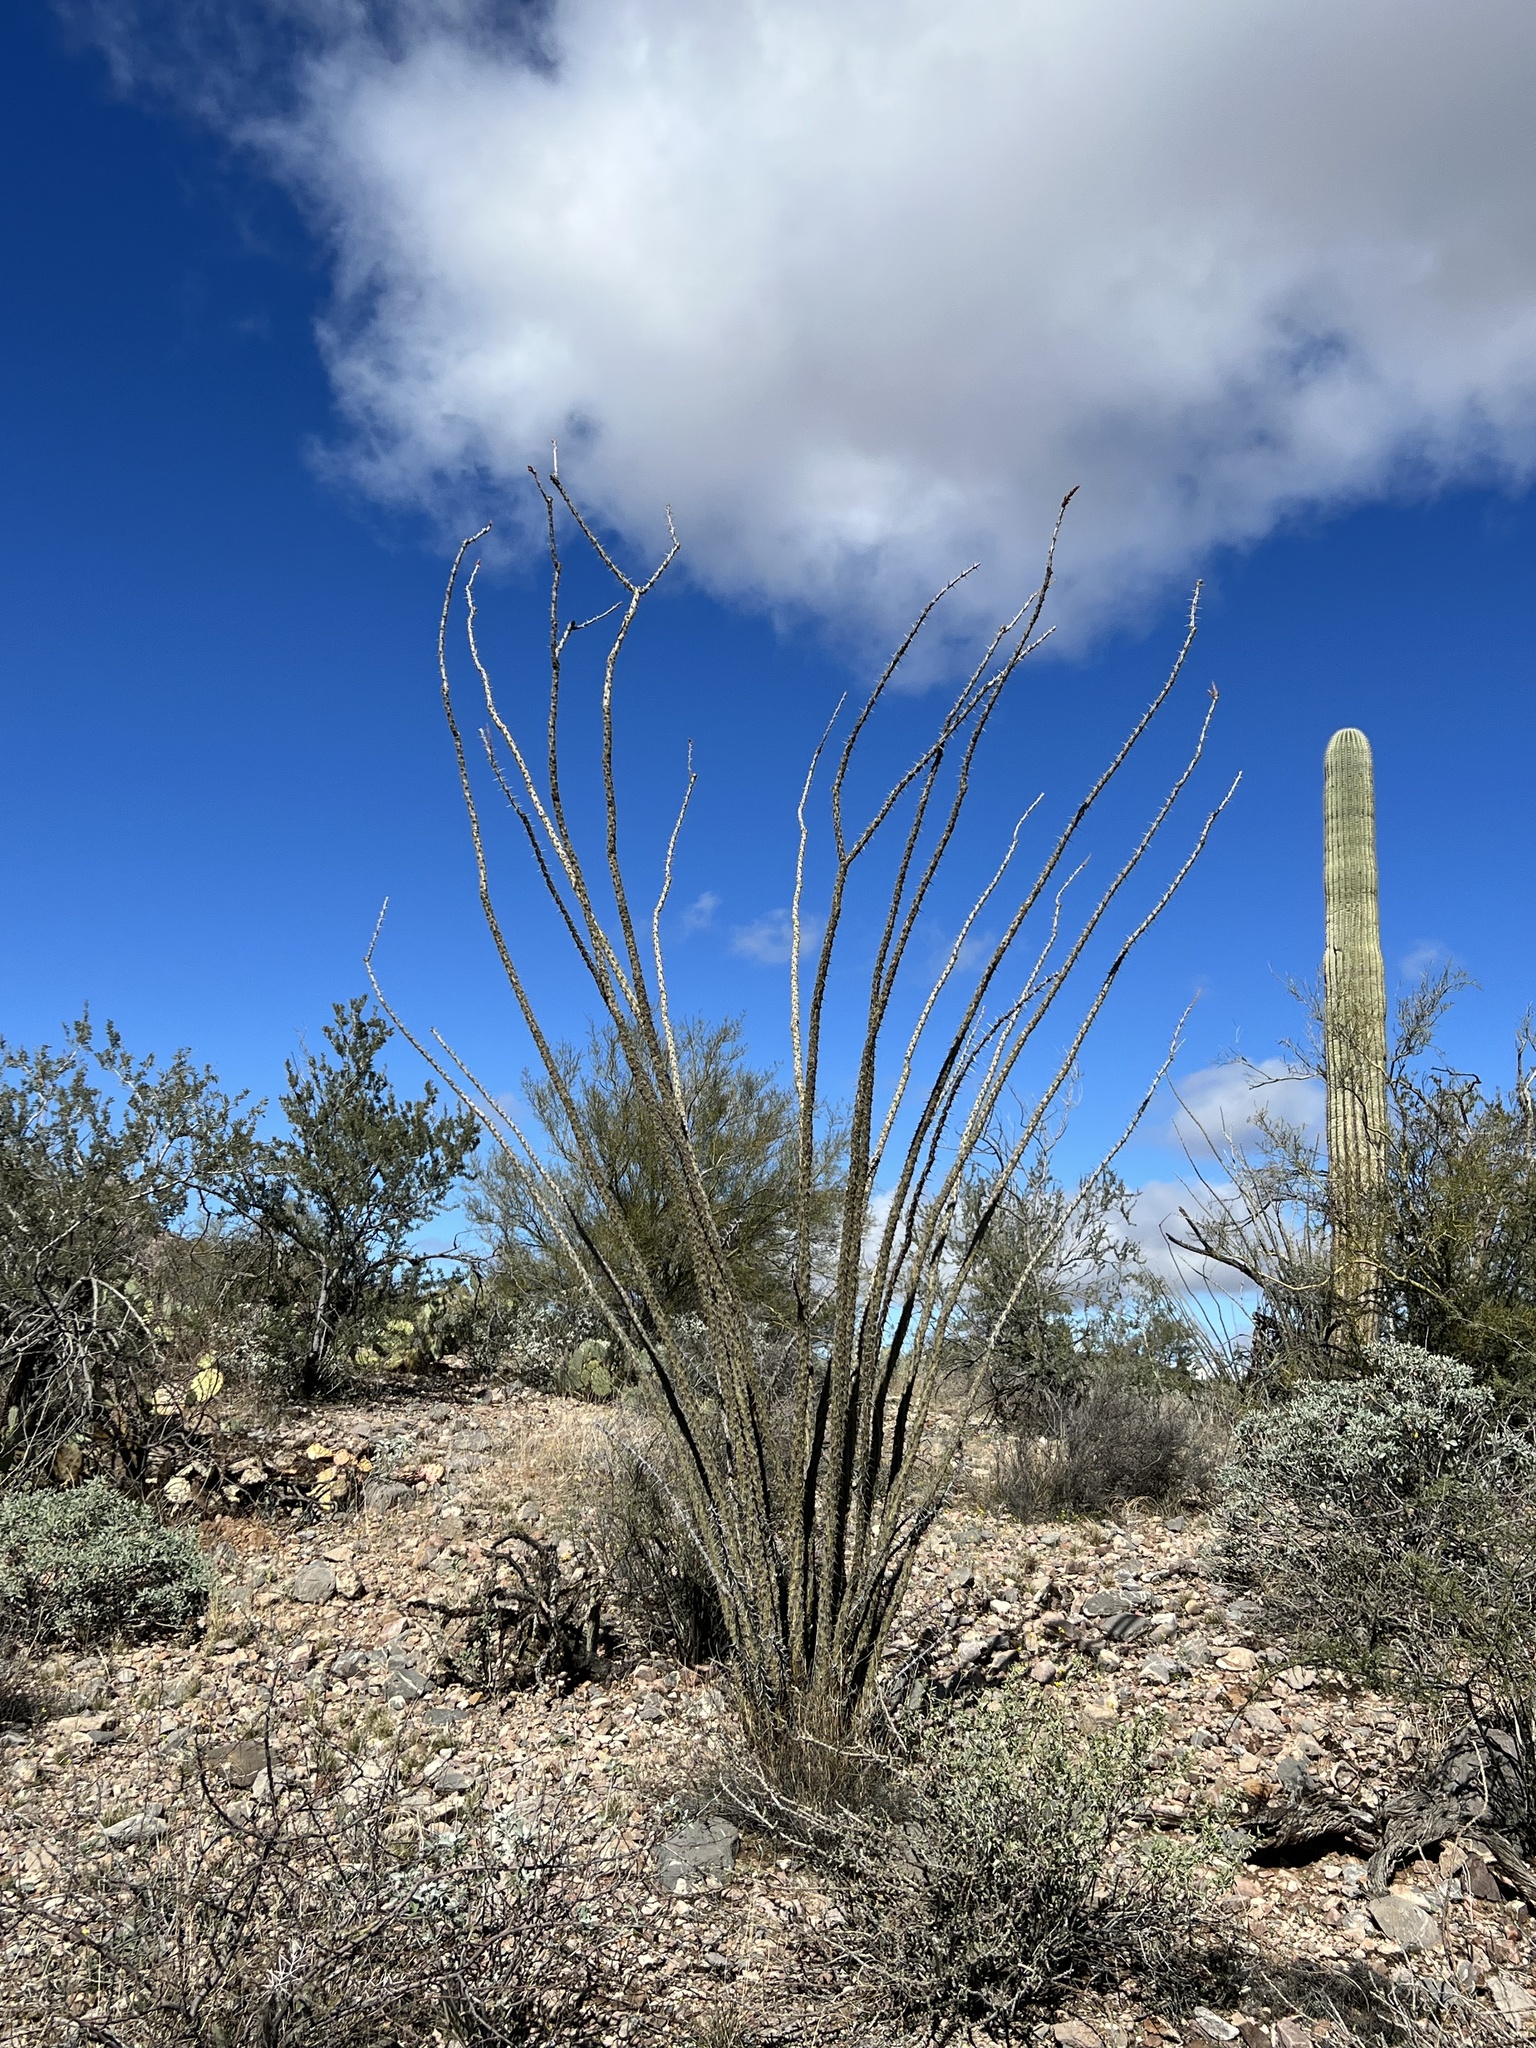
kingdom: Plantae
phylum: Tracheophyta
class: Magnoliopsida
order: Ericales
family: Fouquieriaceae
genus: Fouquieria
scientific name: Fouquieria splendens
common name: Vine-cactus
